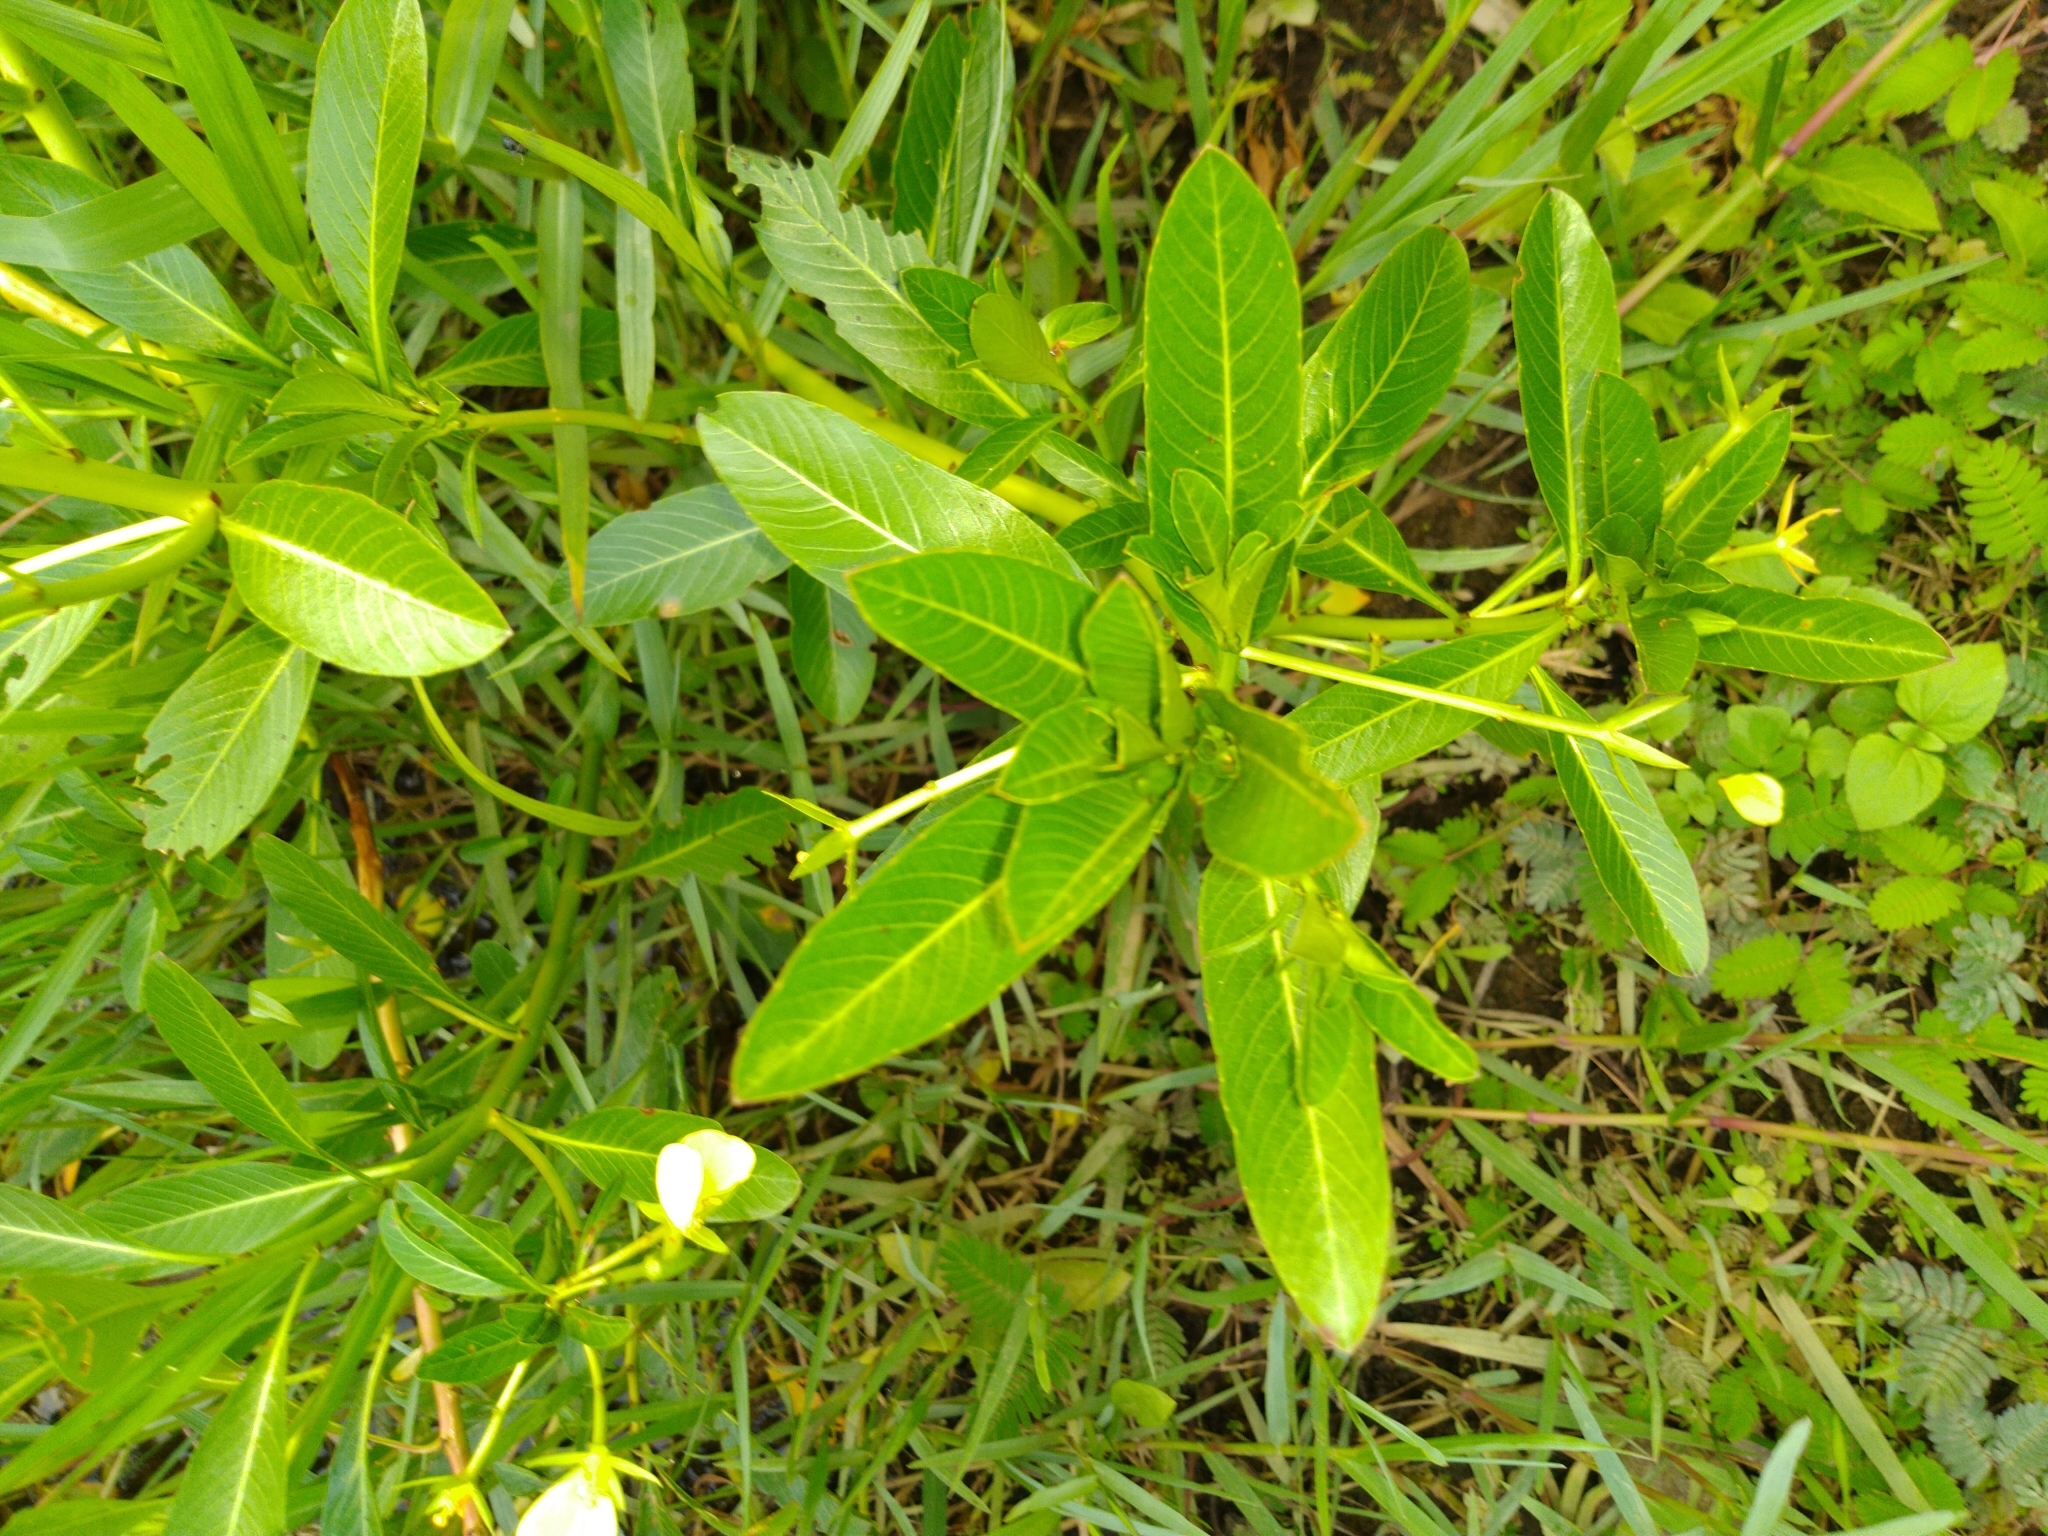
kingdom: Plantae
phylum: Tracheophyta
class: Magnoliopsida
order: Myrtales
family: Onagraceae
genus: Ludwigia
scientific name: Ludwigia taiwanensis
